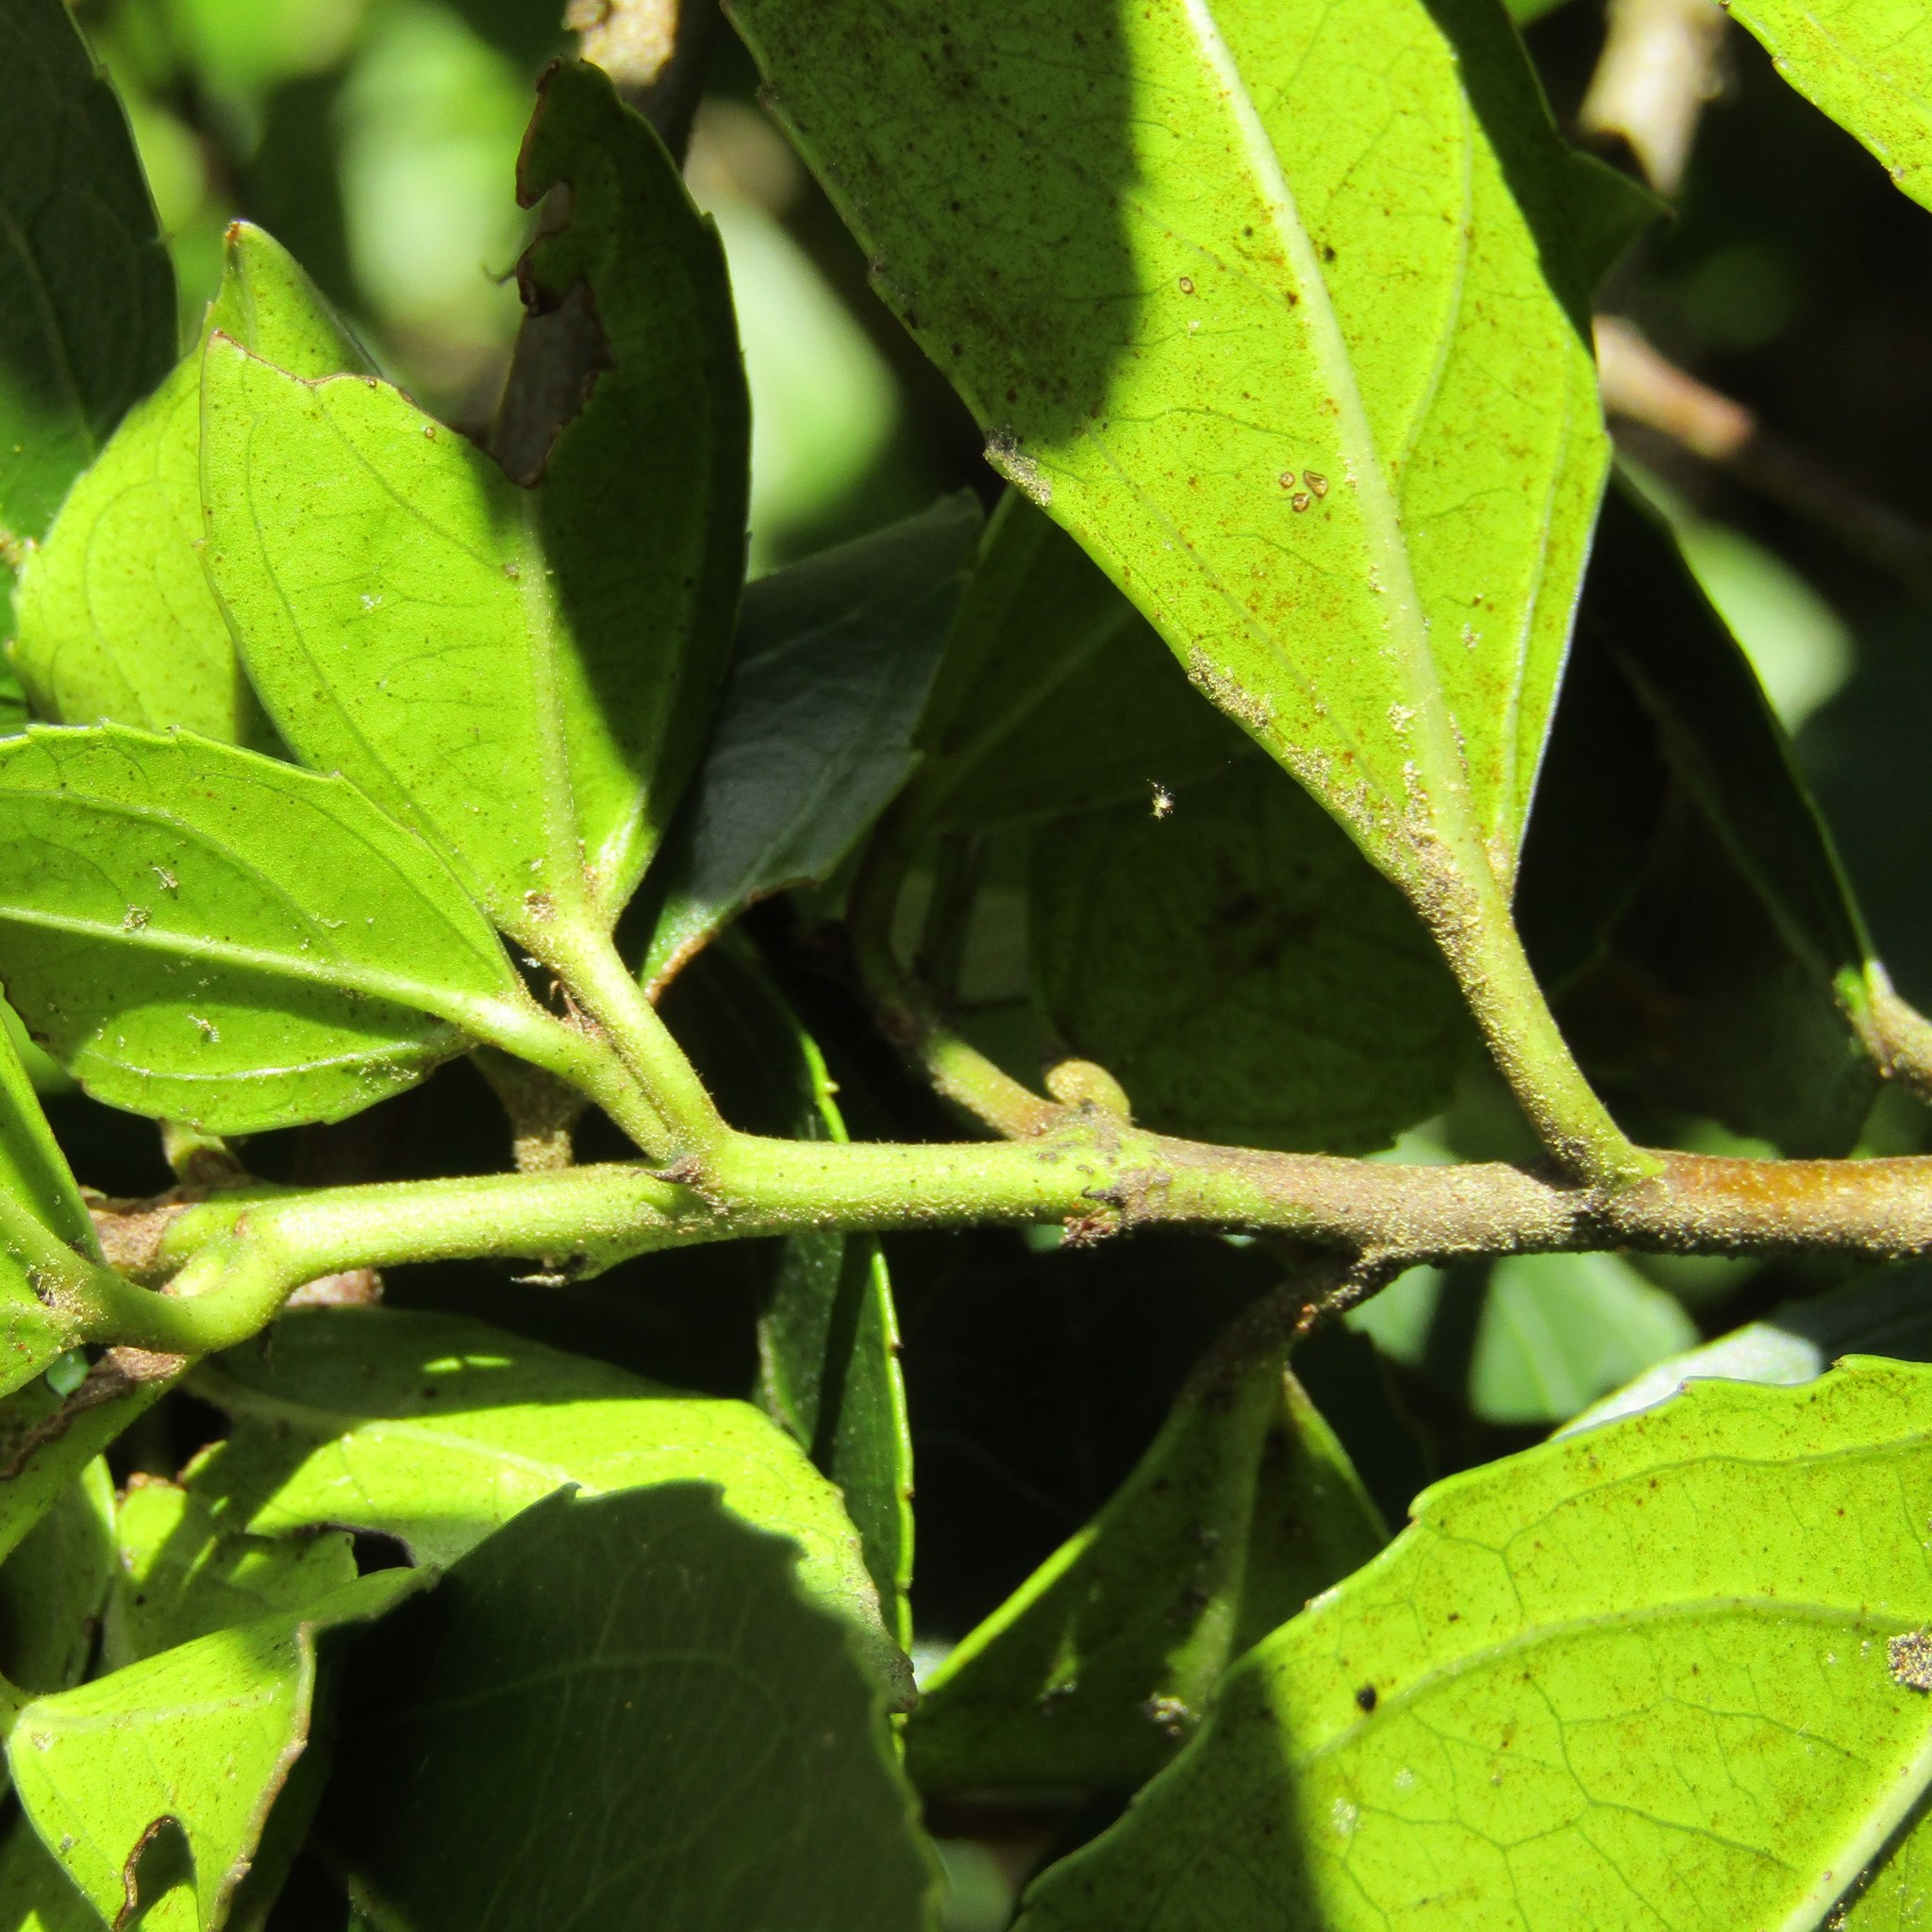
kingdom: Plantae
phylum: Tracheophyta
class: Magnoliopsida
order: Rosales
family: Rhamnaceae
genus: Rhamnus
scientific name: Rhamnus alaternus
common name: Mediterranean buckthorn
